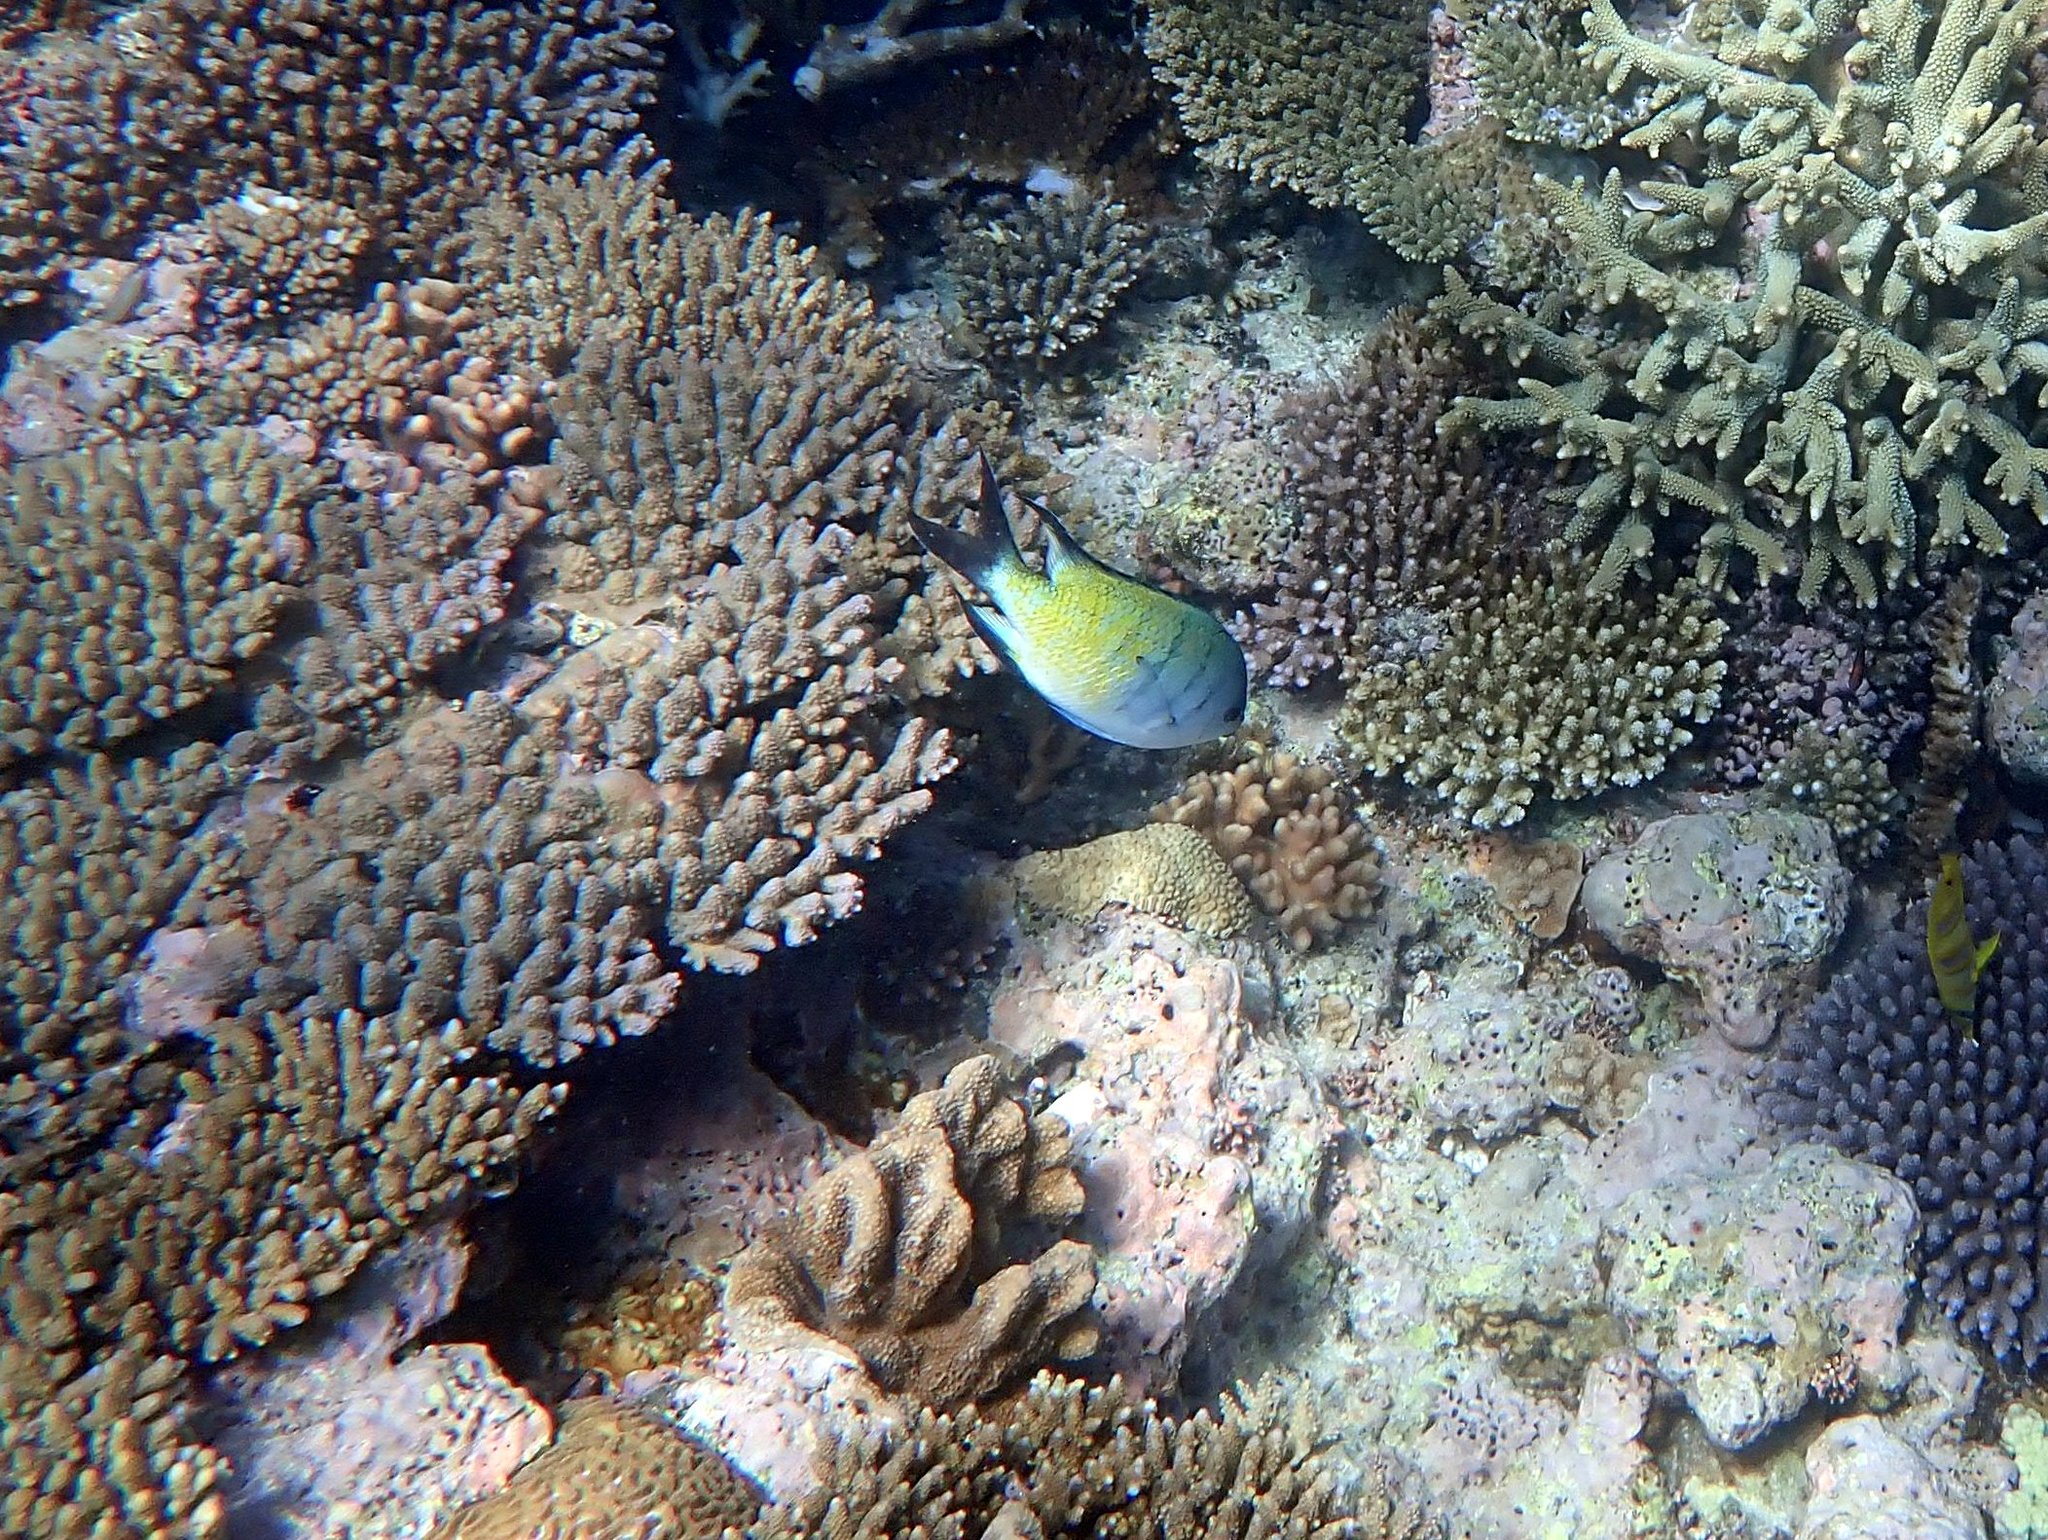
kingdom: Animalia
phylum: Chordata
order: Perciformes
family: Pomacentridae
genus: Abudefduf
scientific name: Abudefduf whitleyi
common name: Whitley's seargent
